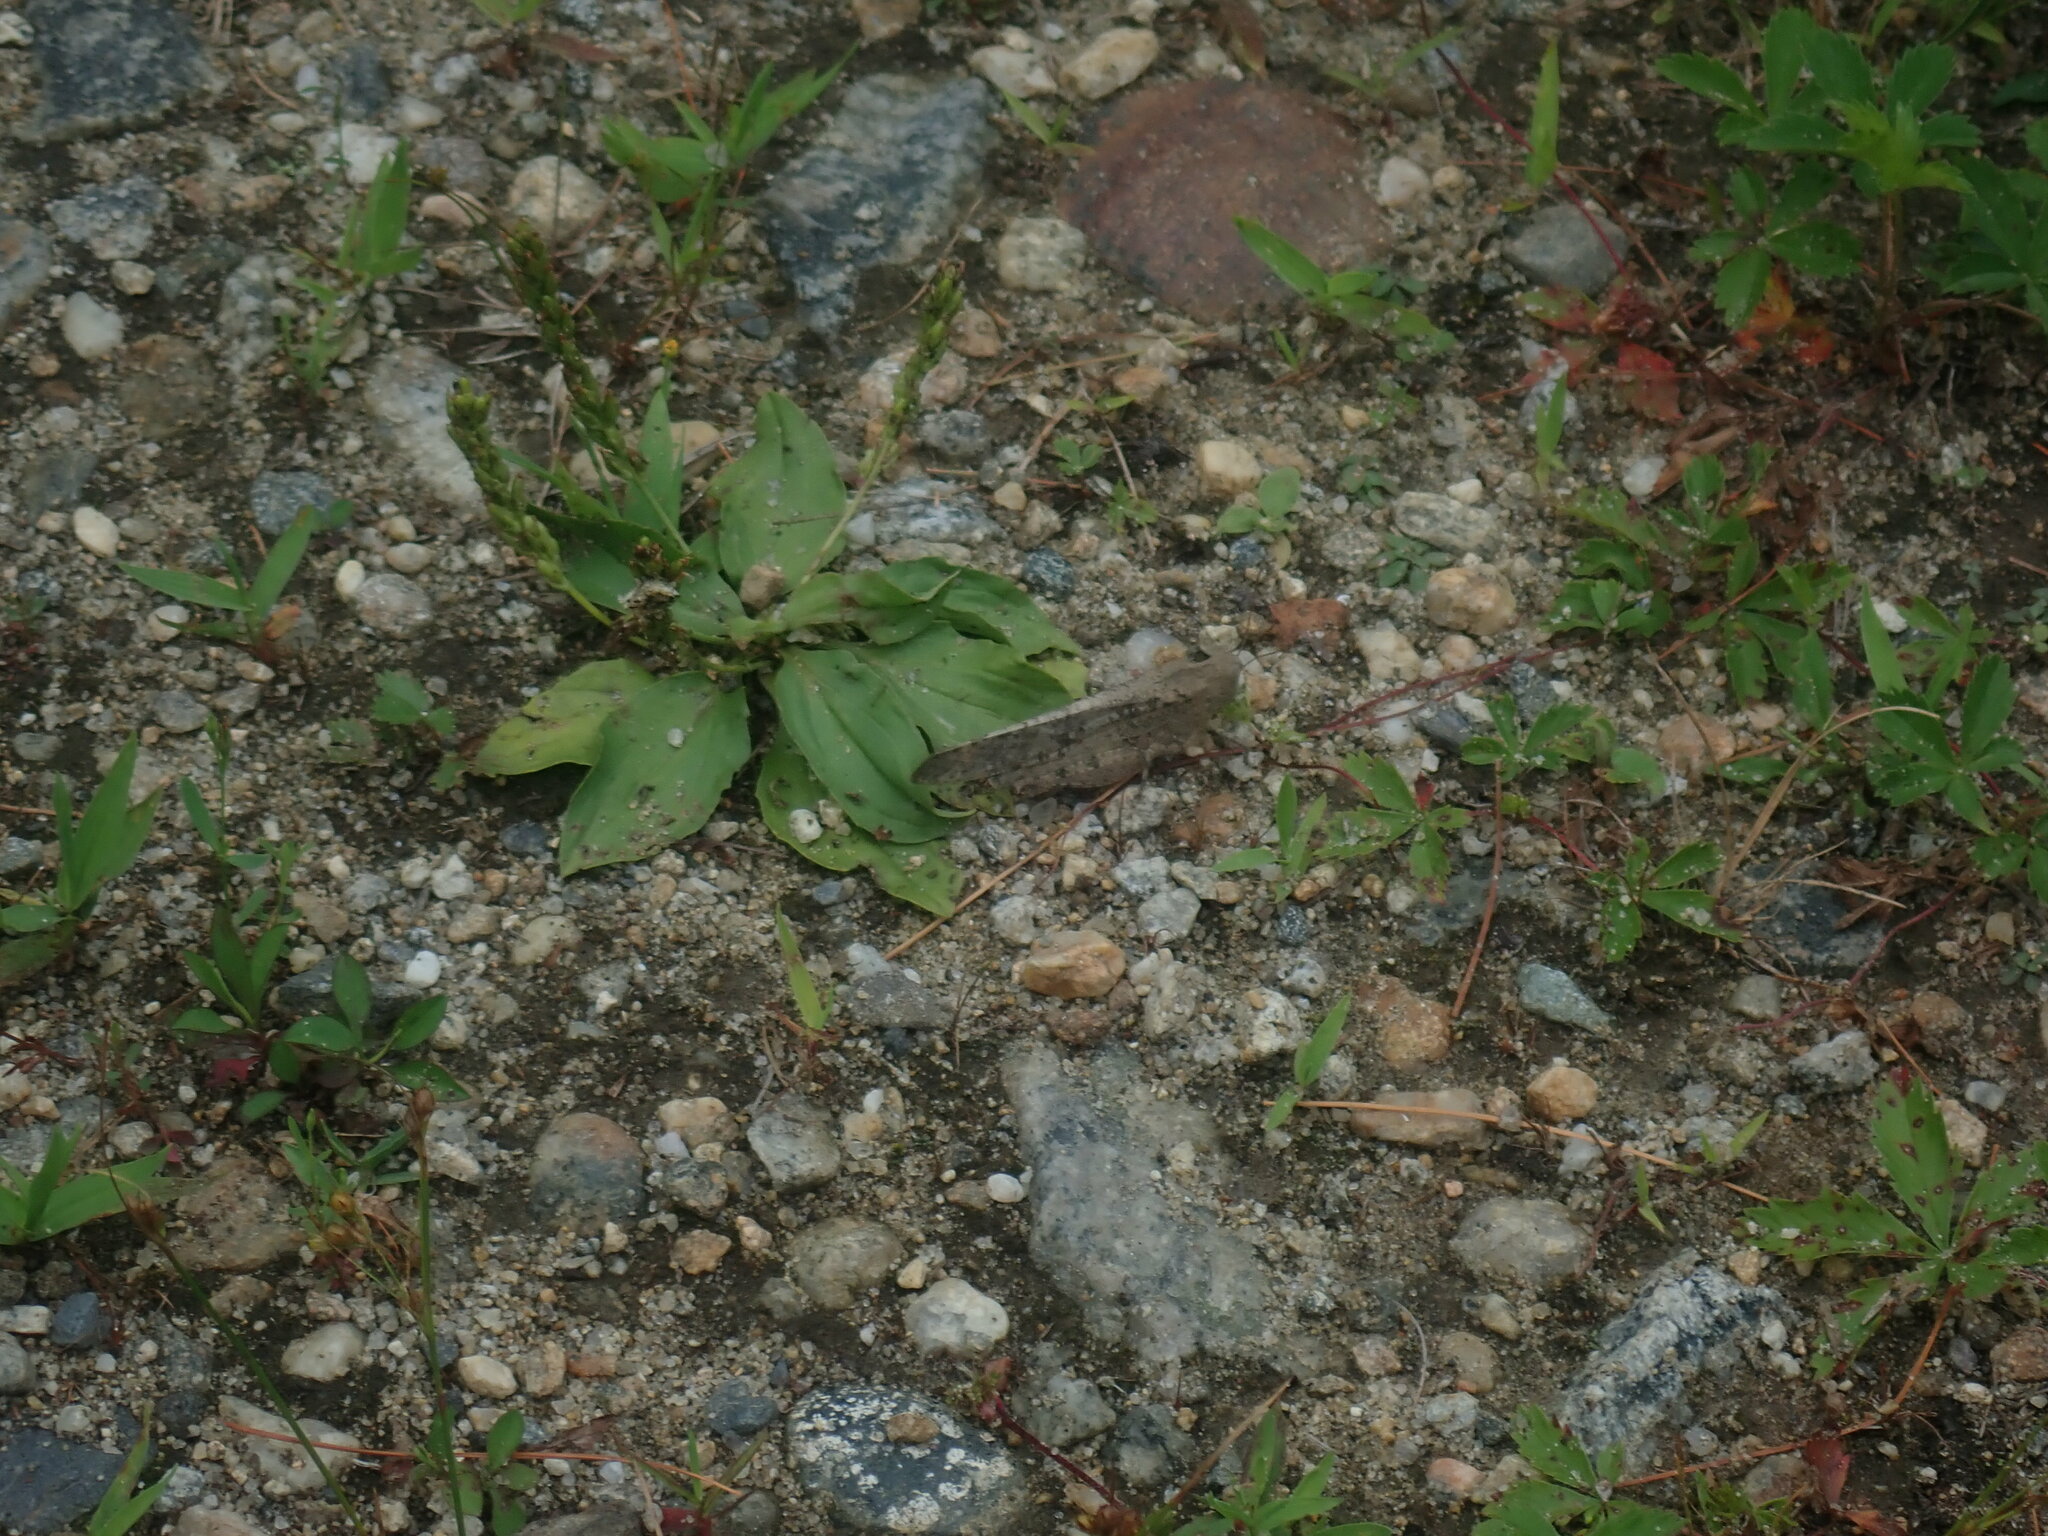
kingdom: Animalia
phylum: Arthropoda
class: Insecta
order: Orthoptera
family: Acrididae
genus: Dissosteira
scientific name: Dissosteira carolina
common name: Carolina grasshopper
